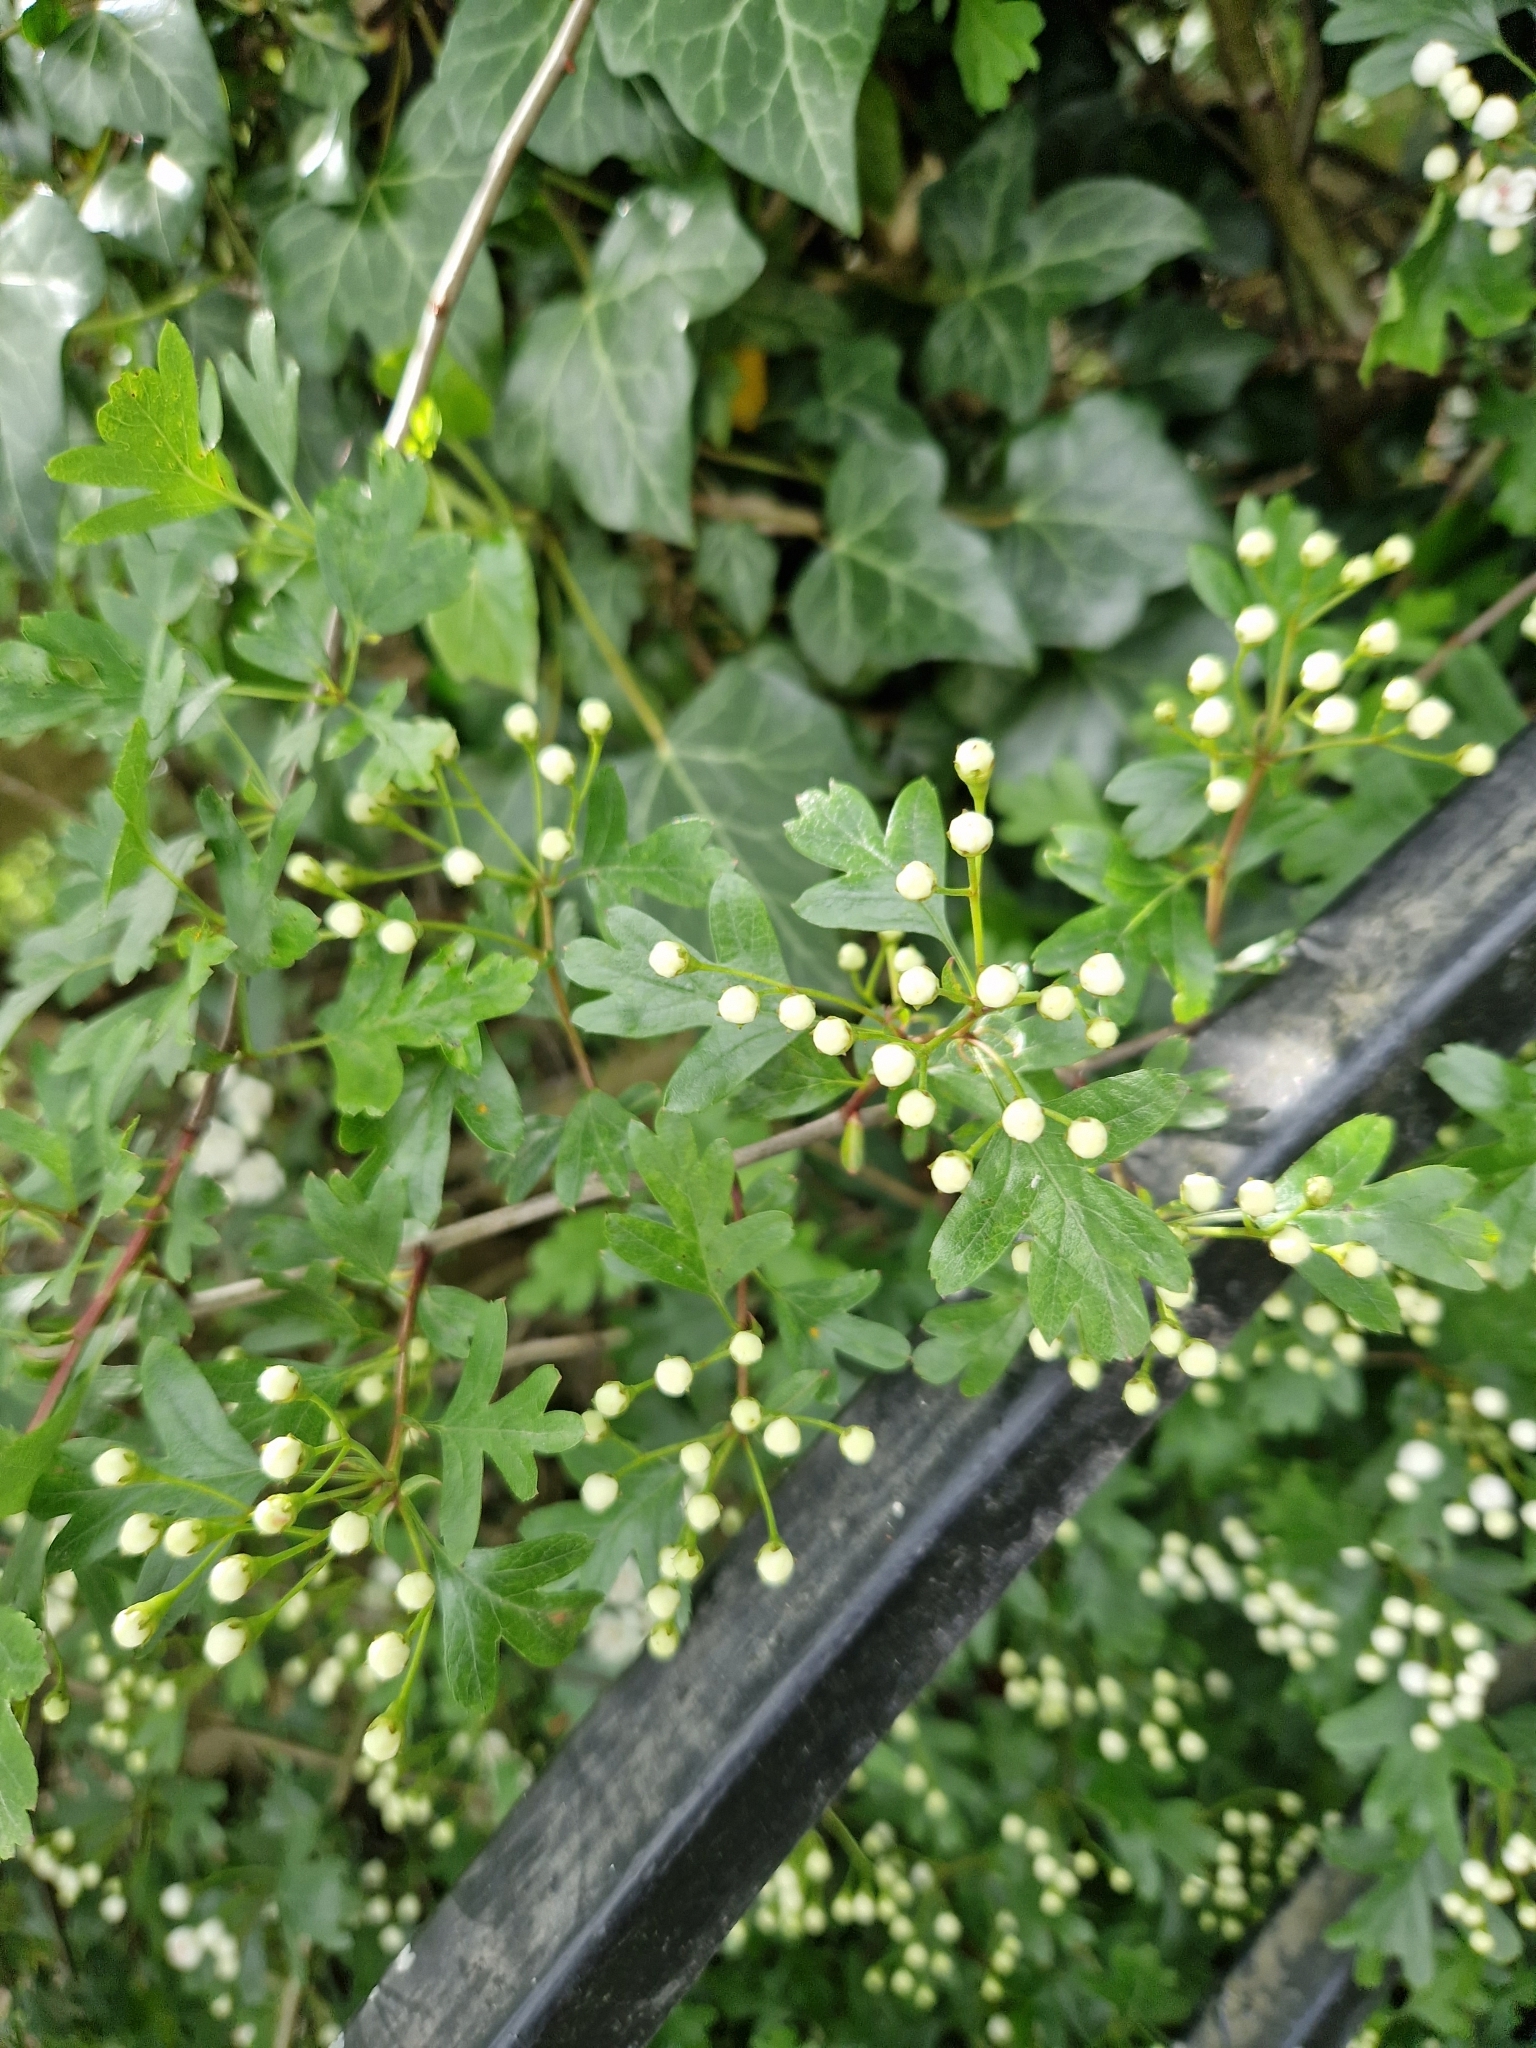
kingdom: Plantae
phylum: Tracheophyta
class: Magnoliopsida
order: Rosales
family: Rosaceae
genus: Crataegus
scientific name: Crataegus monogyna
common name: Hawthorn
